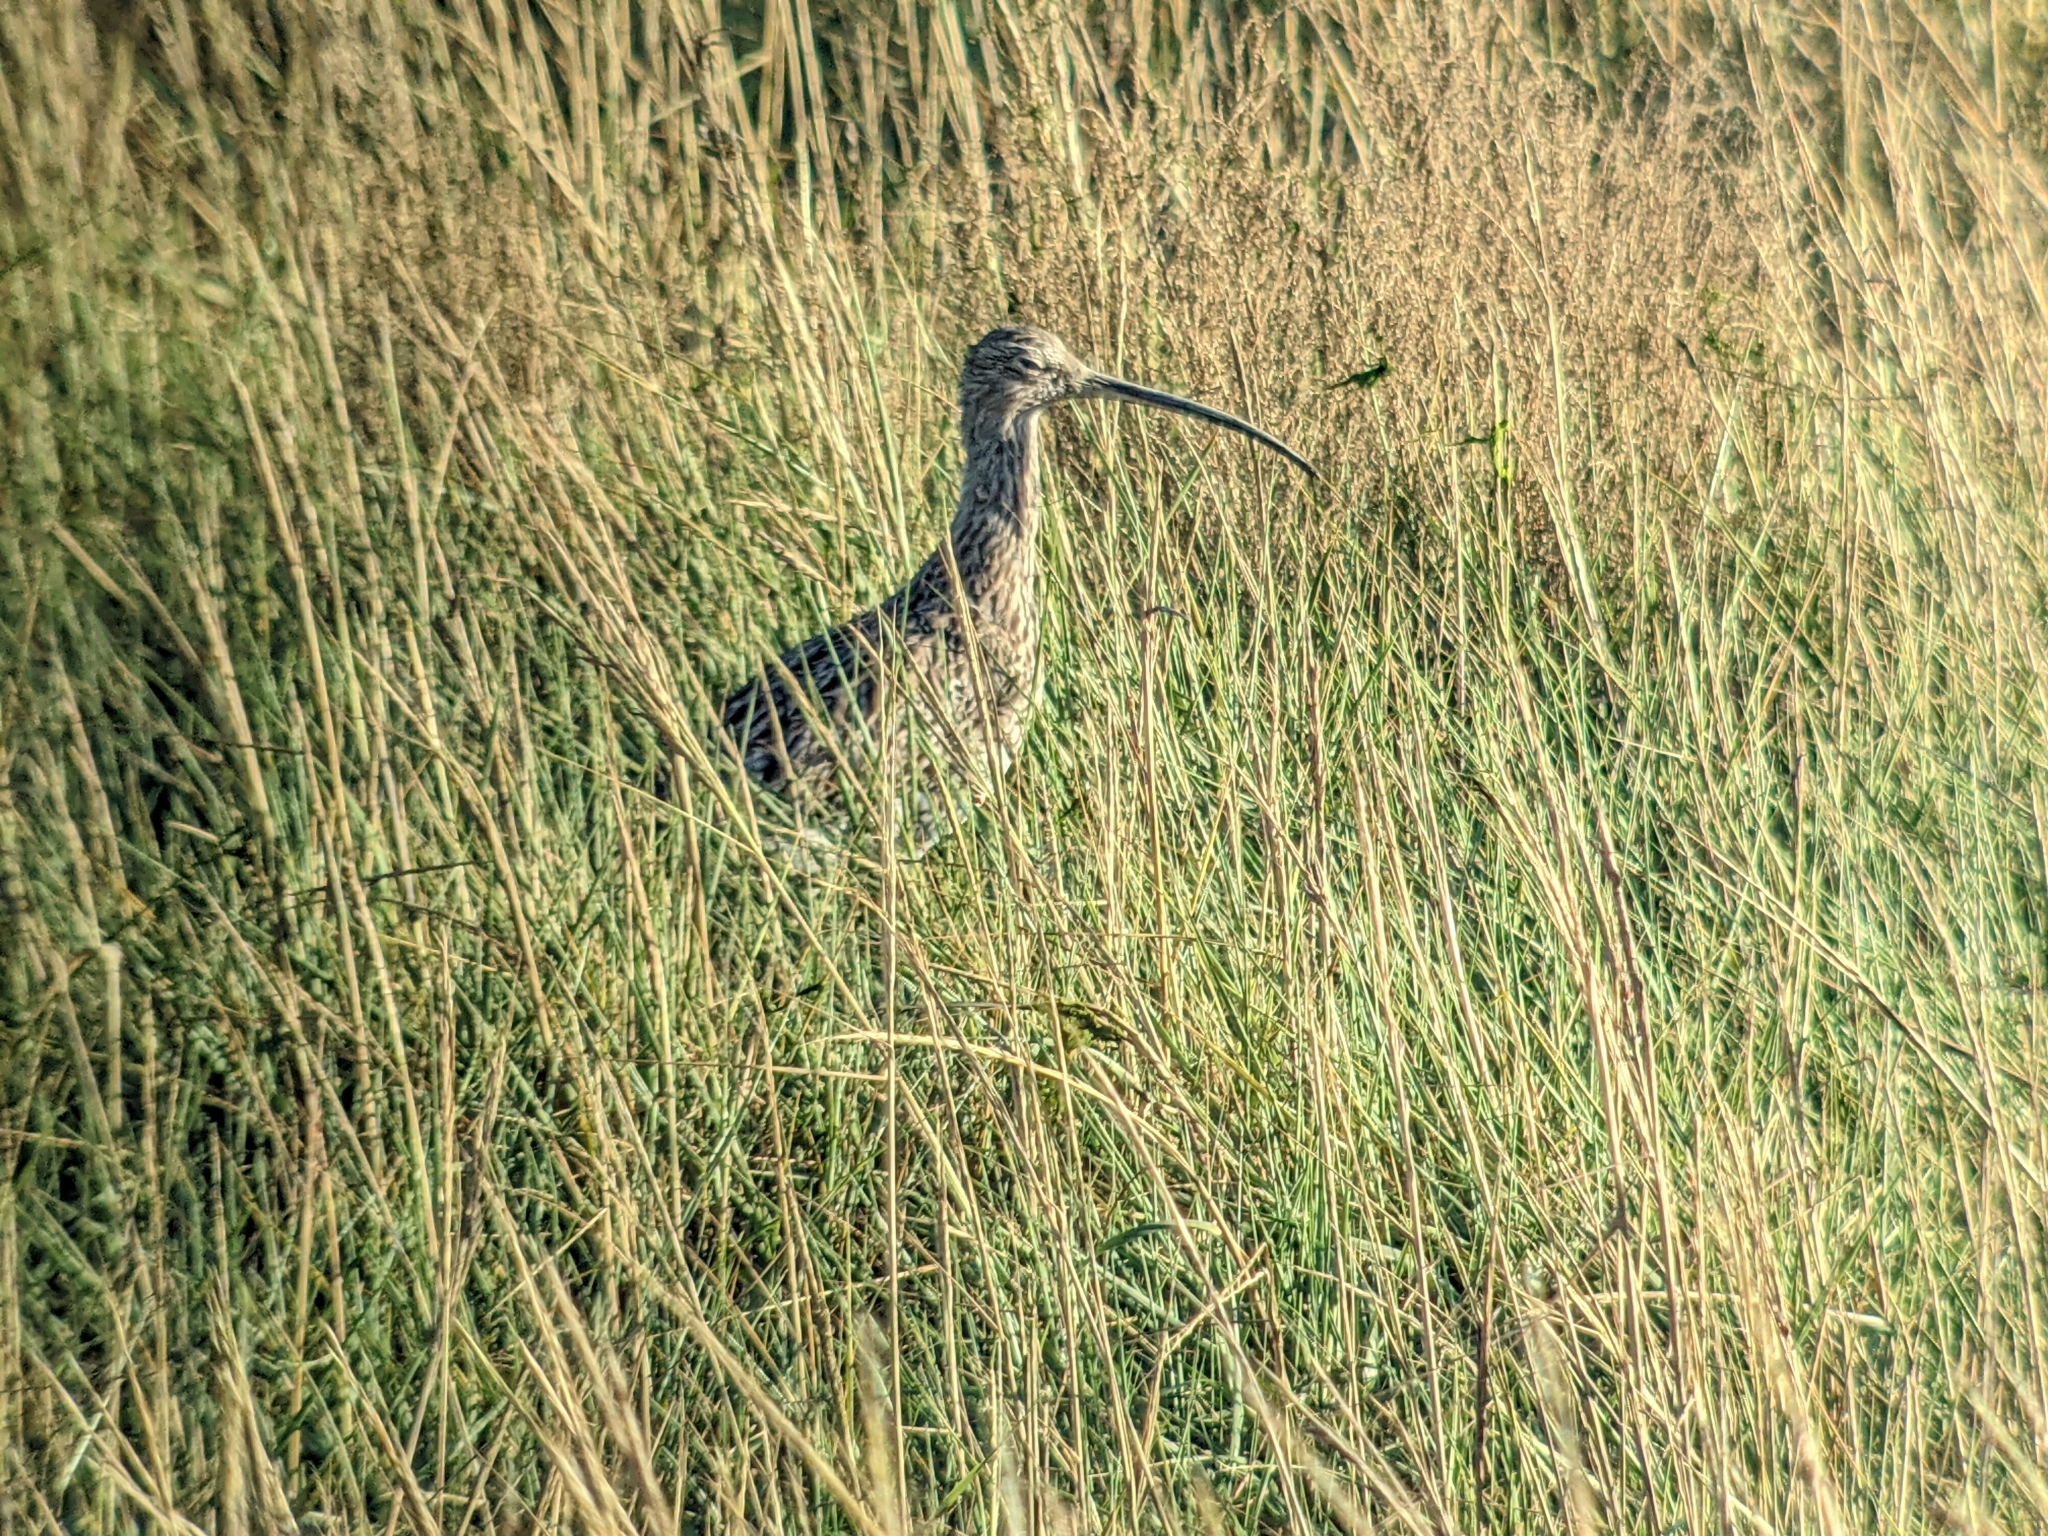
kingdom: Animalia
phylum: Chordata
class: Aves
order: Charadriiformes
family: Scolopacidae
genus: Numenius
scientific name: Numenius arquata
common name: Eurasian curlew
